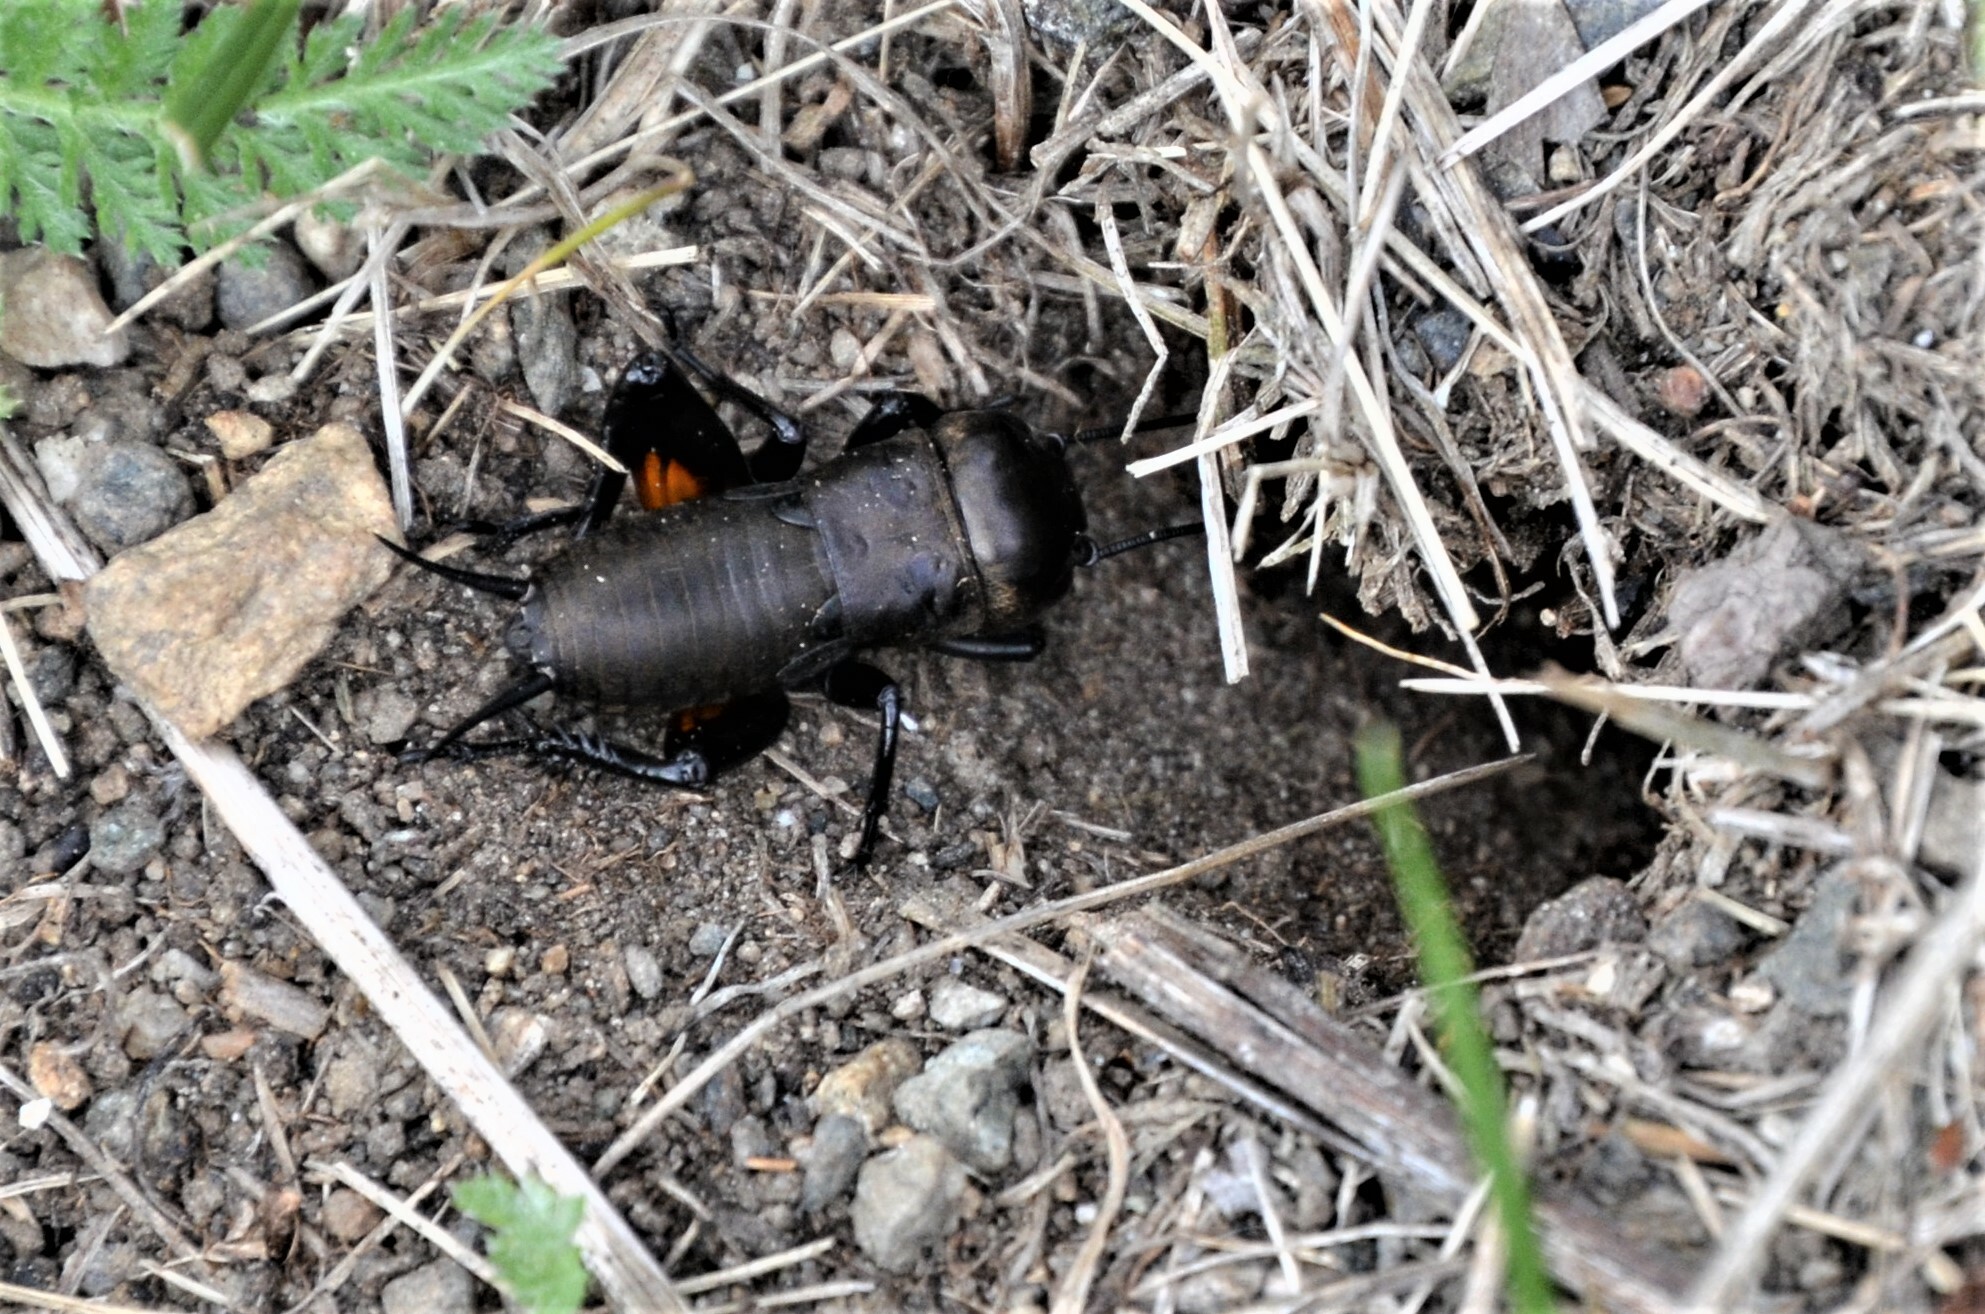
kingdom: Animalia
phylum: Arthropoda
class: Insecta
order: Orthoptera
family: Gryllidae
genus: Gryllus
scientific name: Gryllus campestris
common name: Field cricket
